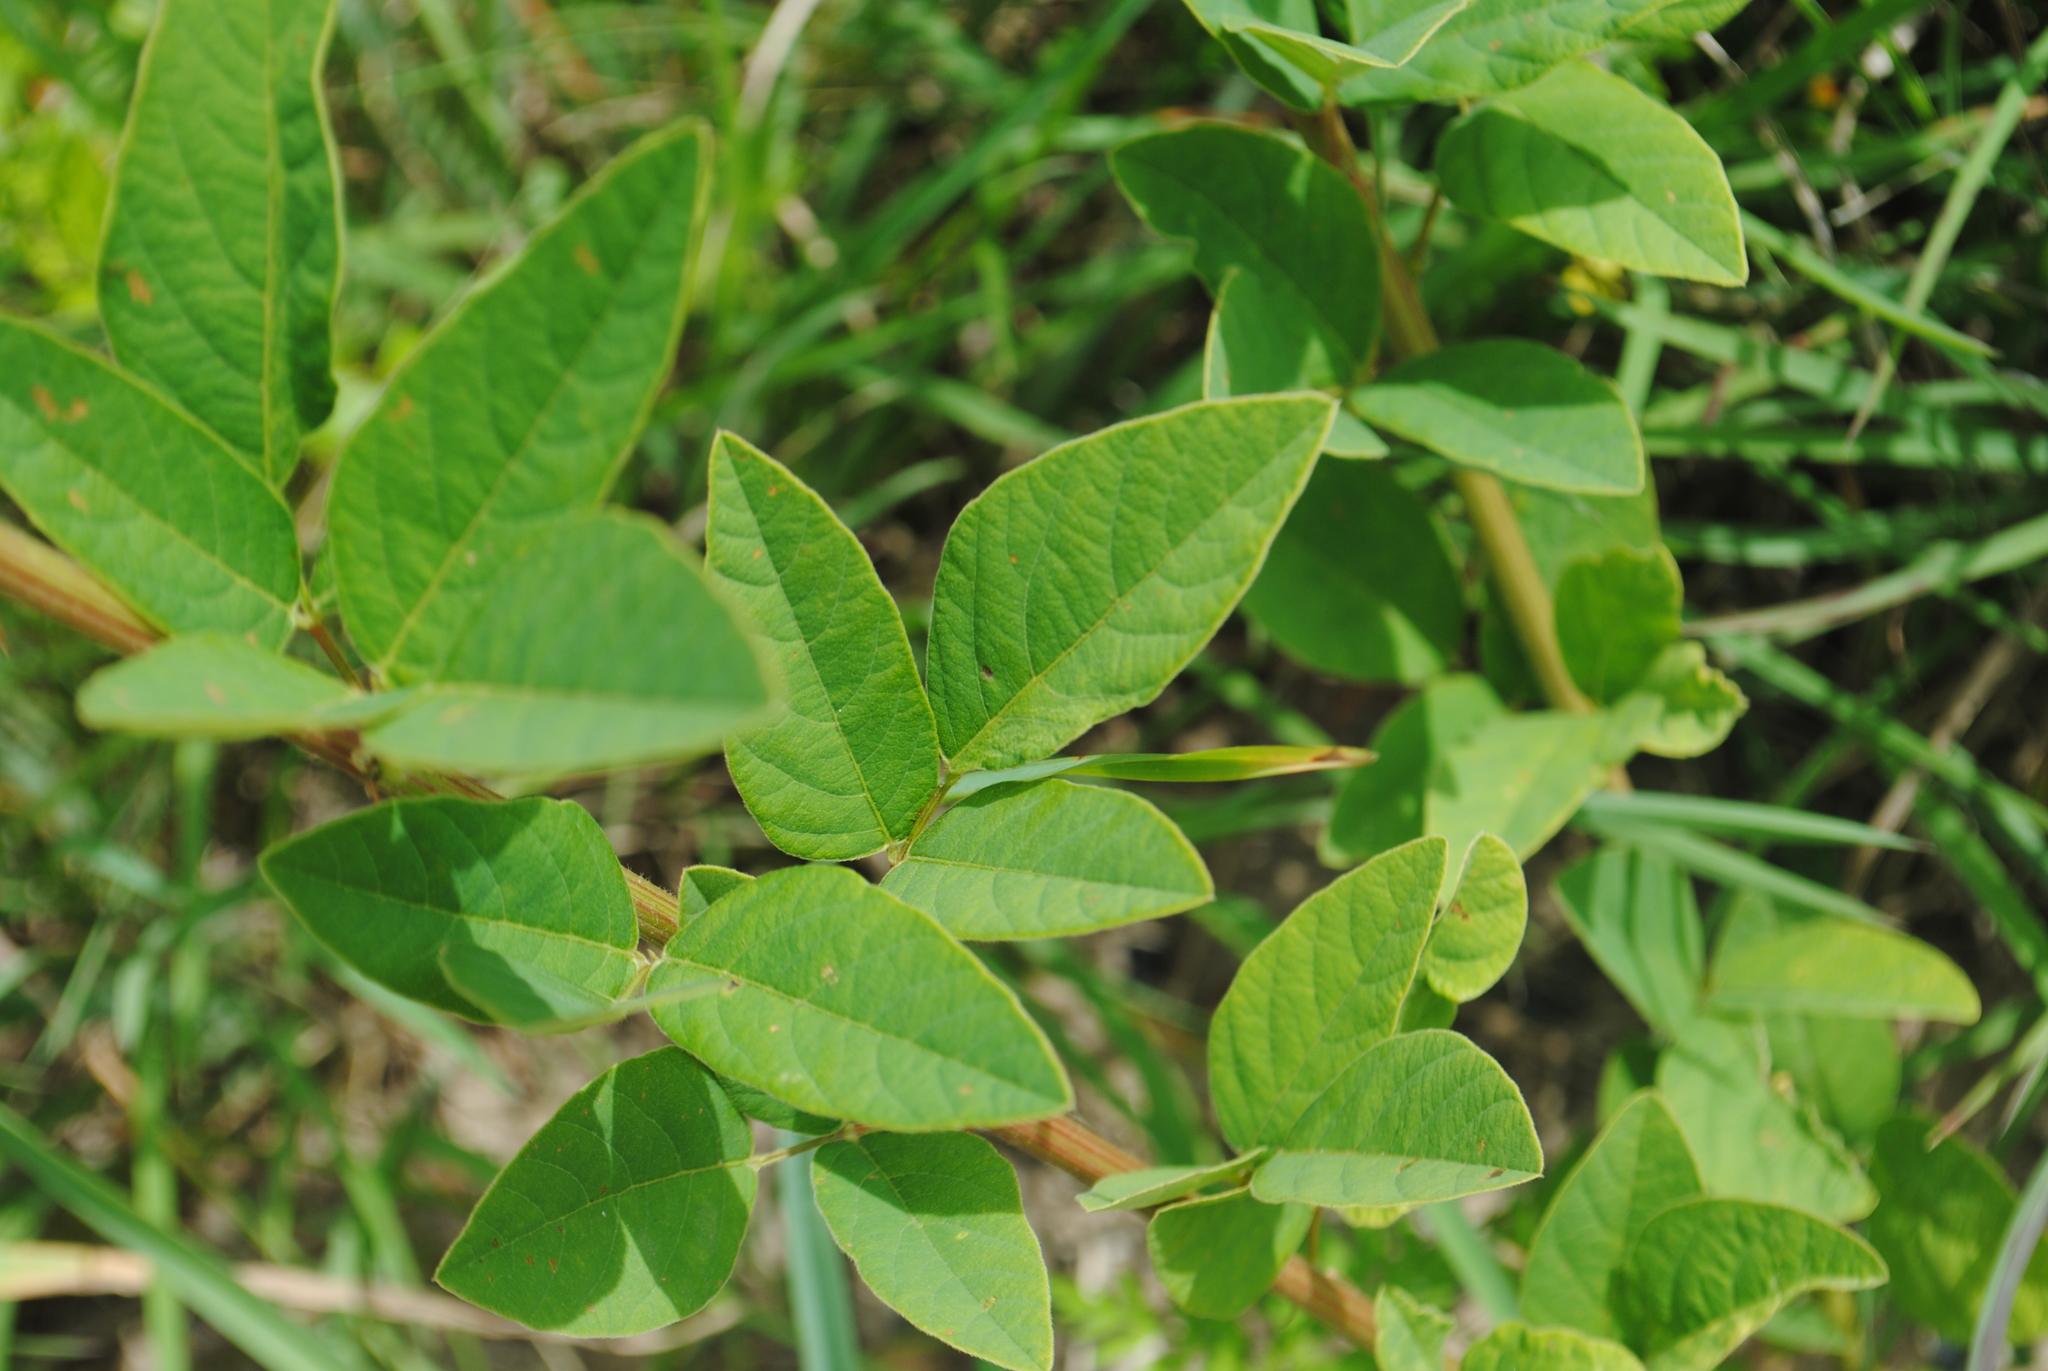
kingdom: Plantae
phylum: Tracheophyta
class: Magnoliopsida
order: Fabales
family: Fabaceae
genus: Desmodium
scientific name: Desmodium canadense
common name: Canada tick-trefoil
